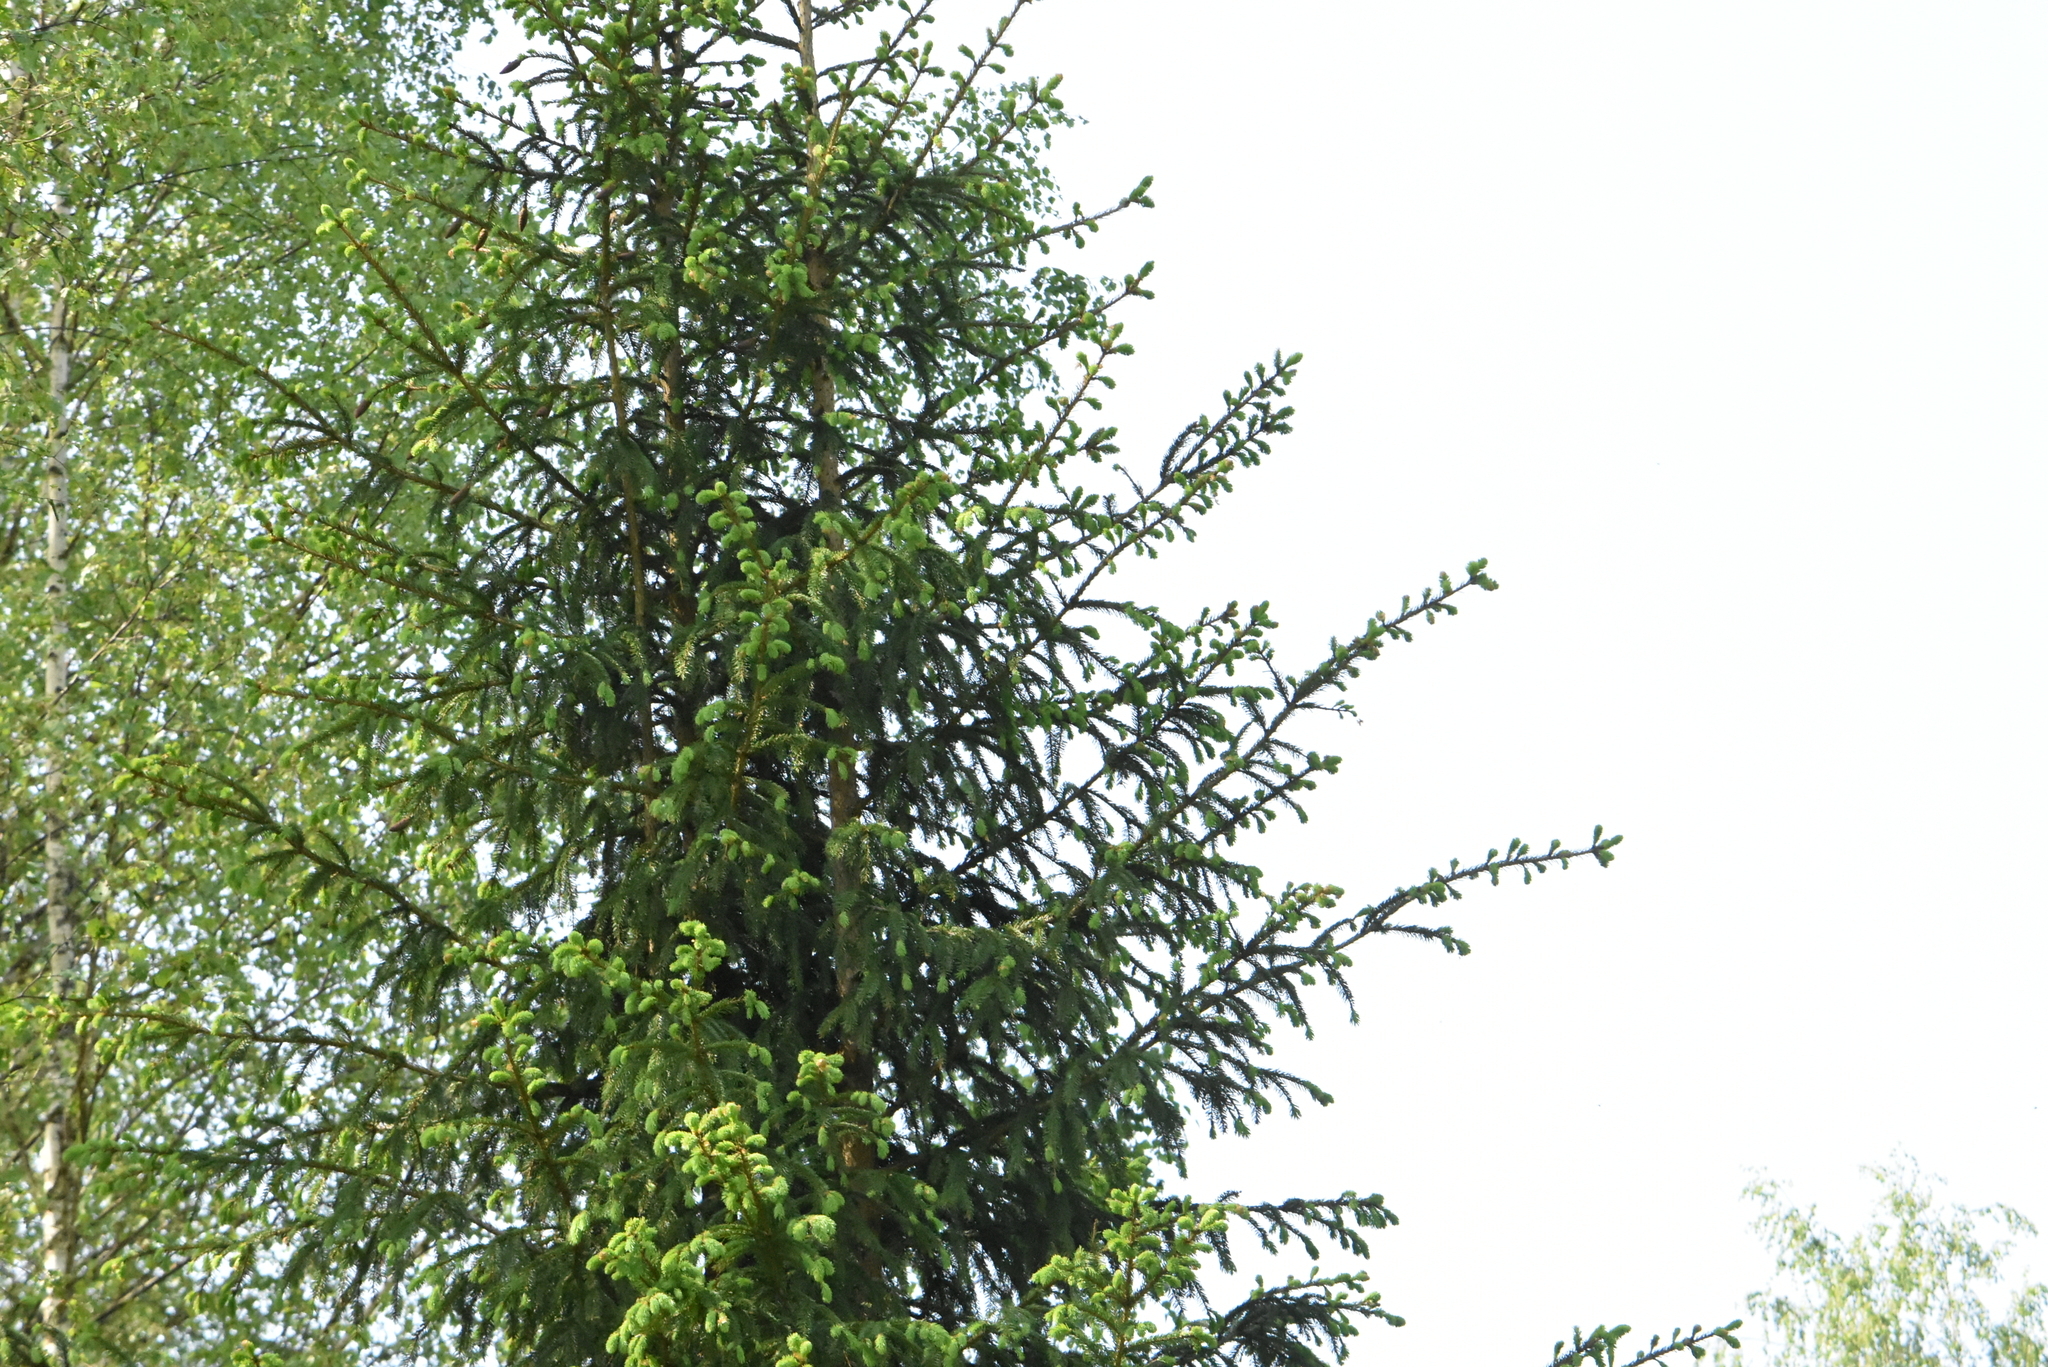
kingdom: Plantae
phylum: Tracheophyta
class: Pinopsida
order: Pinales
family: Pinaceae
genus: Picea
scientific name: Picea abies
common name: Norway spruce
